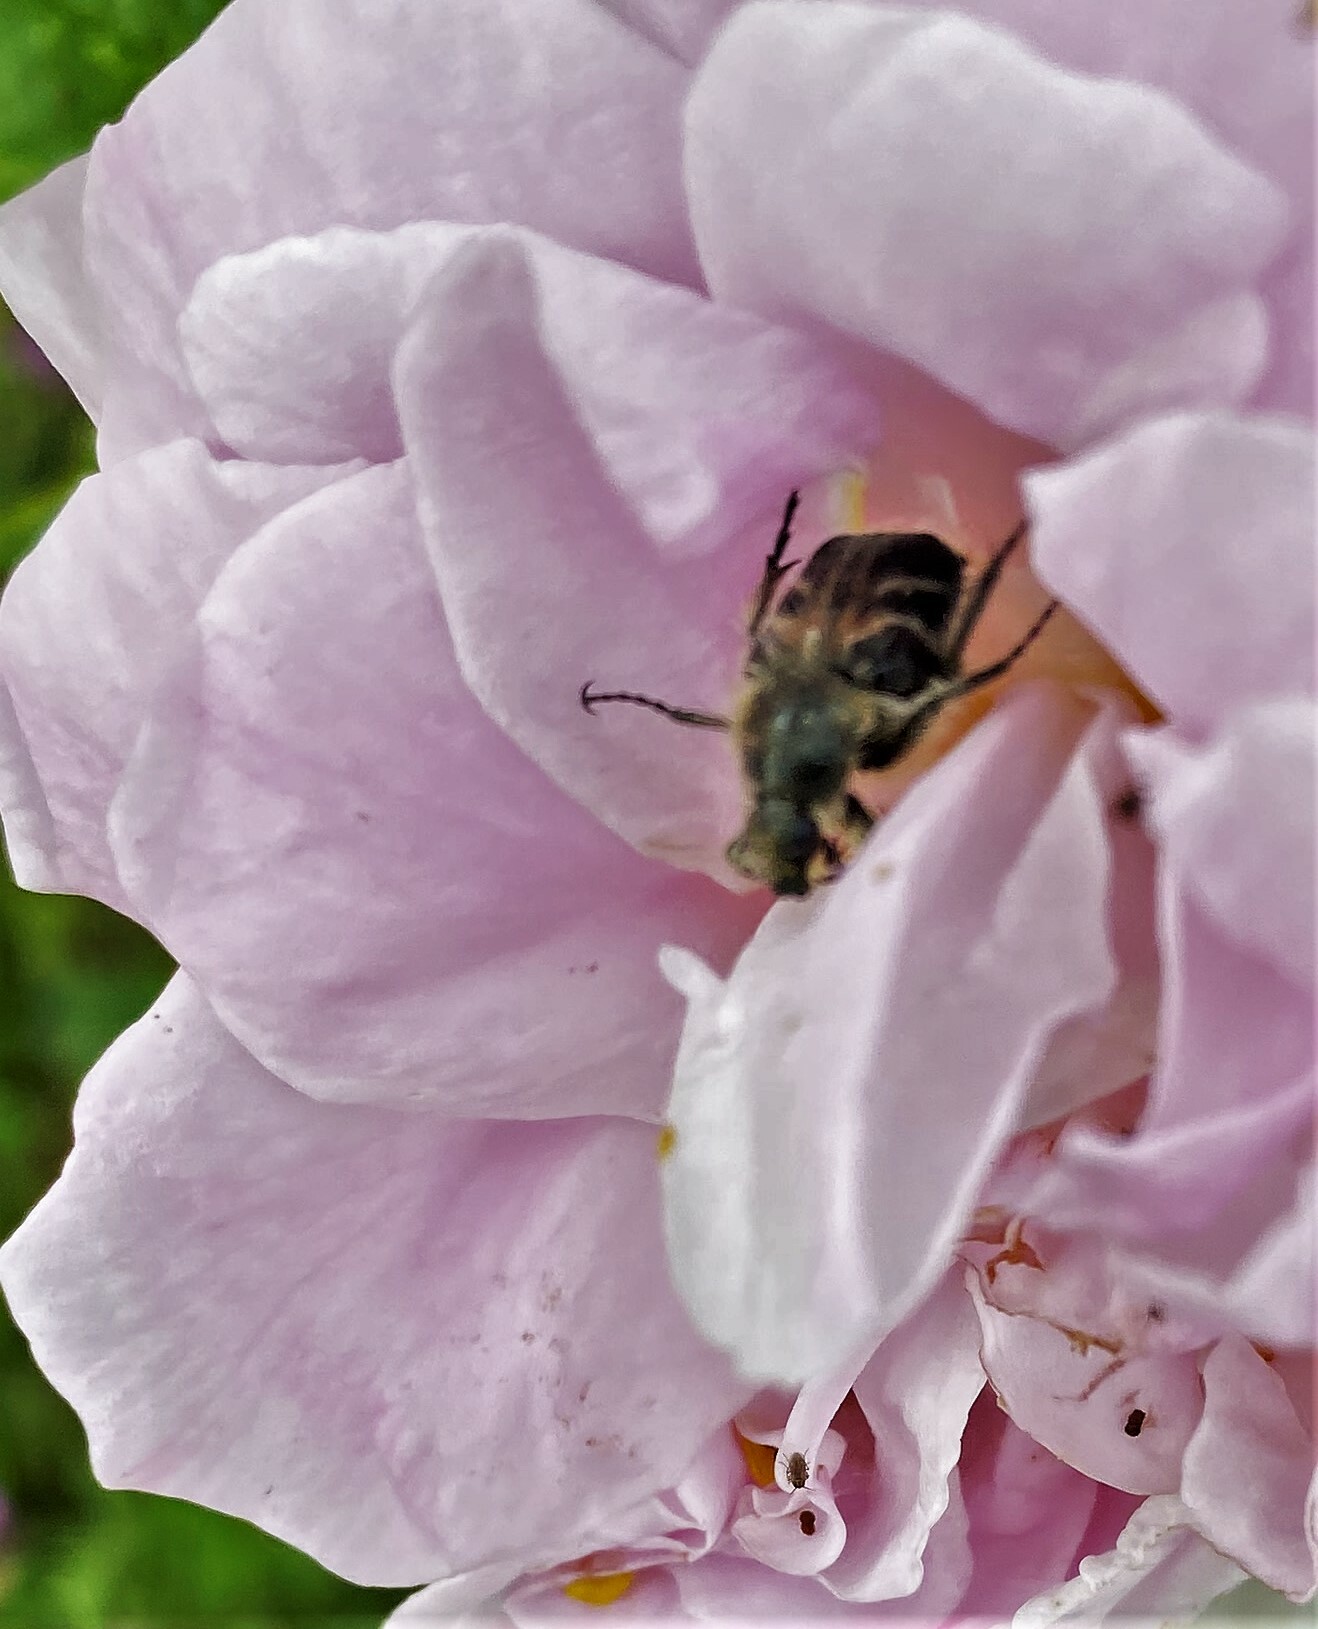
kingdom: Animalia
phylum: Arthropoda
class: Insecta
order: Coleoptera
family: Scarabaeidae
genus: Trichiotinus
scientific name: Trichiotinus assimilis
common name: Bee-mimic beetle
